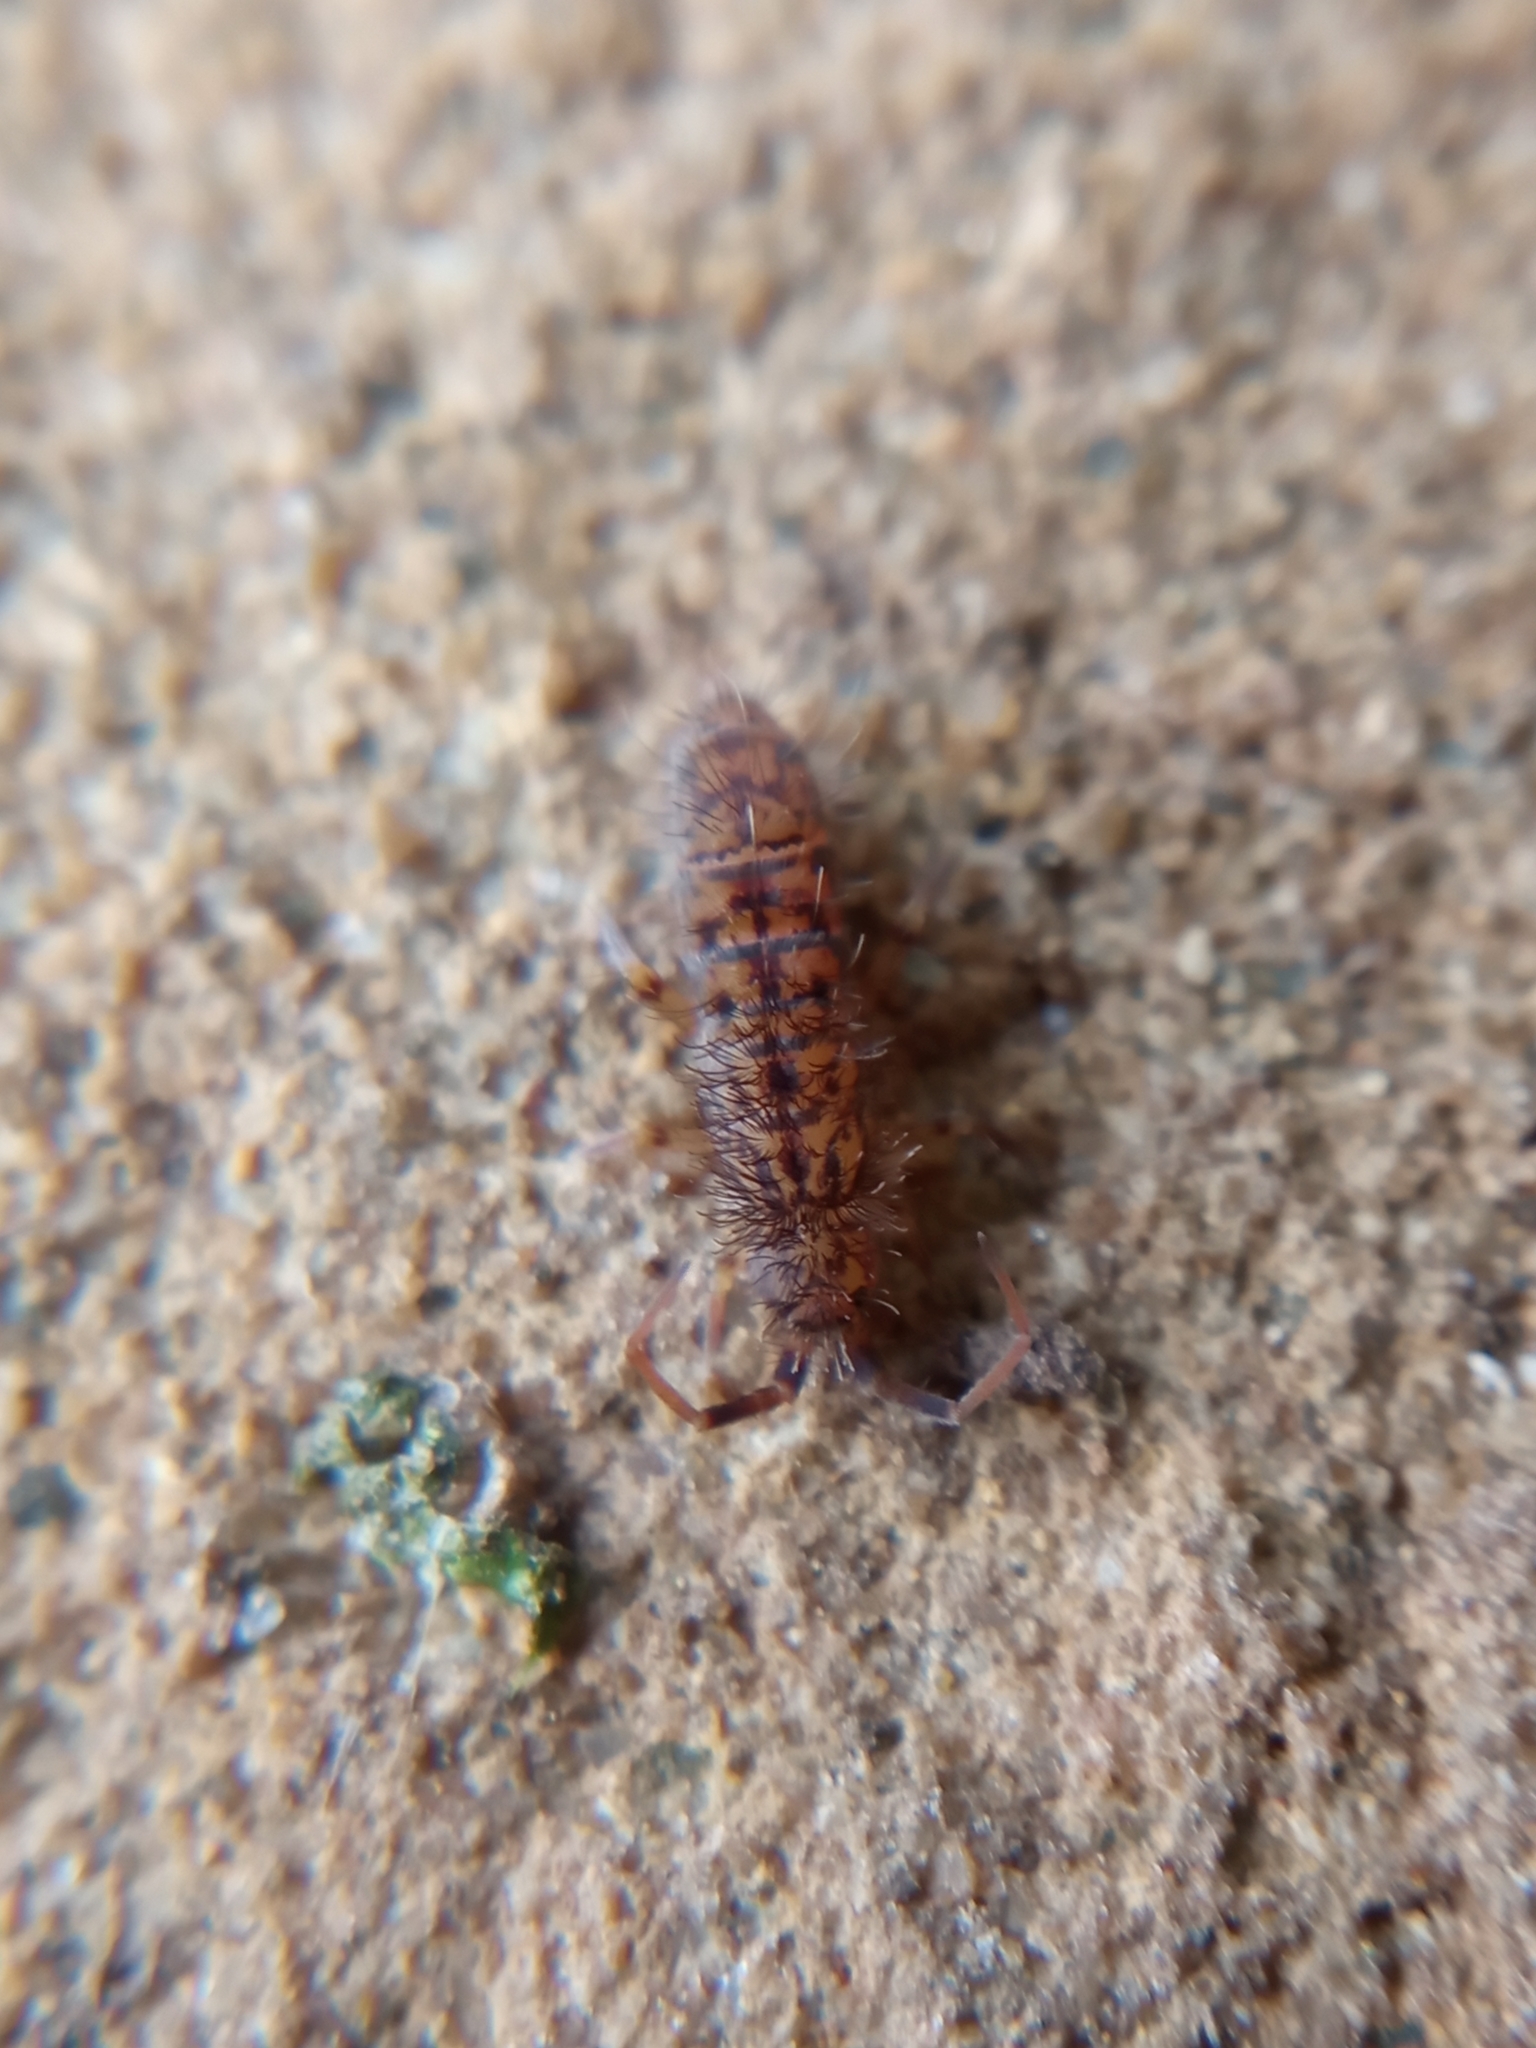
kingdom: Animalia
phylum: Arthropoda
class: Collembola
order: Entomobryomorpha
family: Orchesellidae
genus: Orchesella
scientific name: Orchesella villosa
